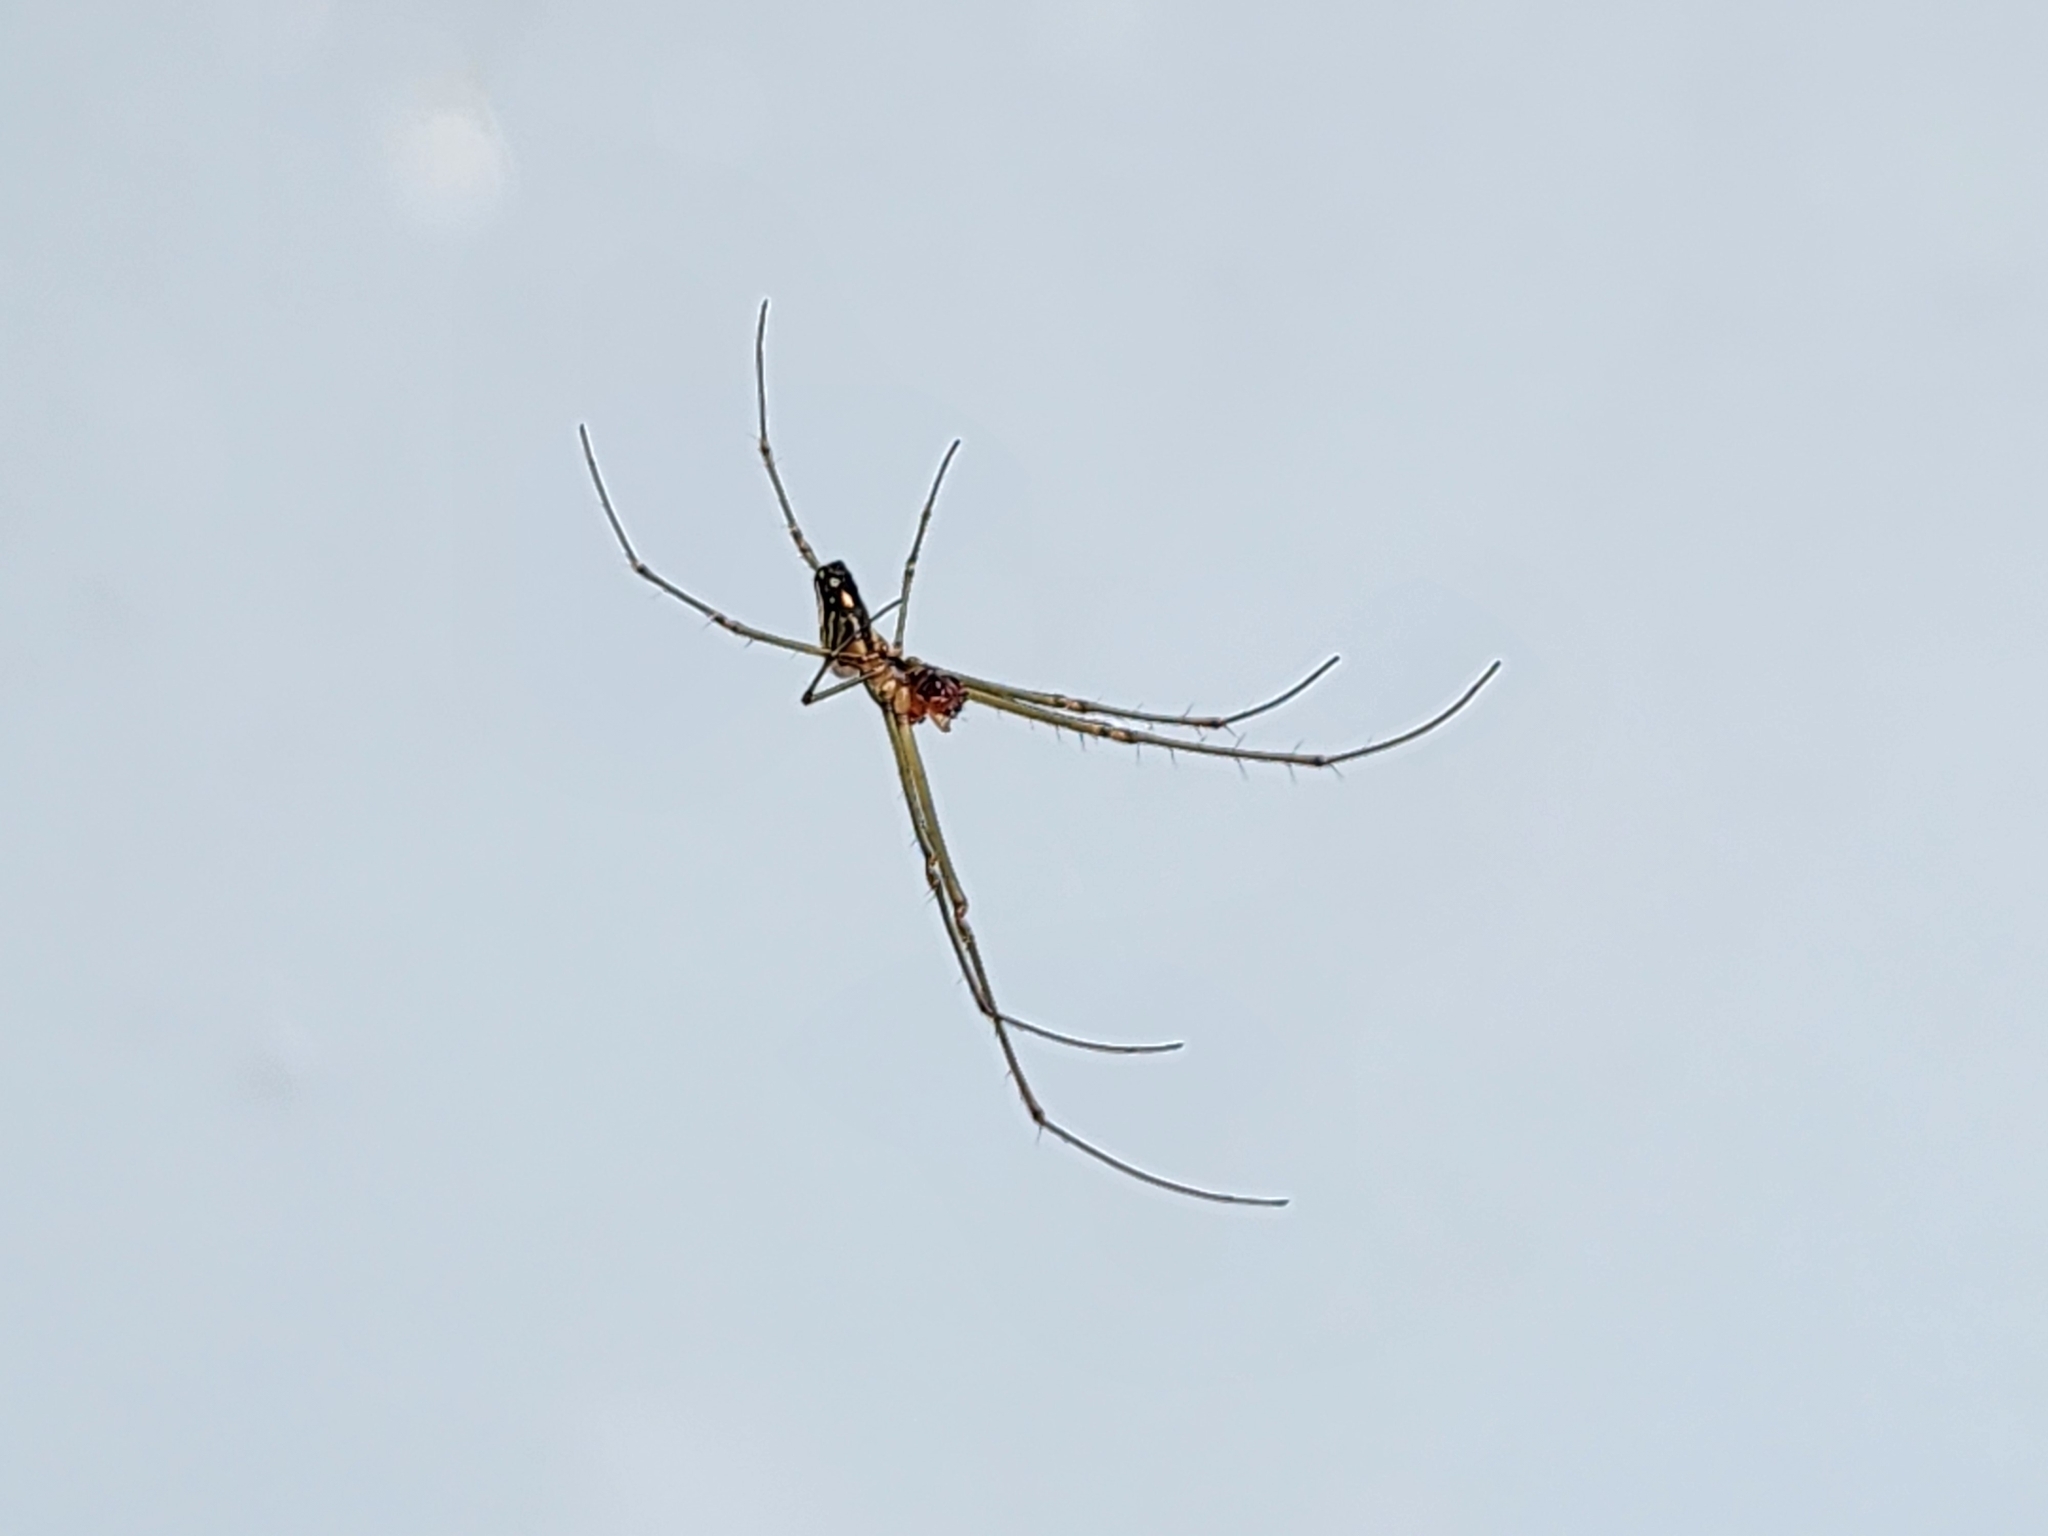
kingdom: Animalia
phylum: Arthropoda
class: Arachnida
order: Araneae
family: Tetragnathidae
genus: Leucauge
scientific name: Leucauge argyra
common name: Longjawed orb weavers
